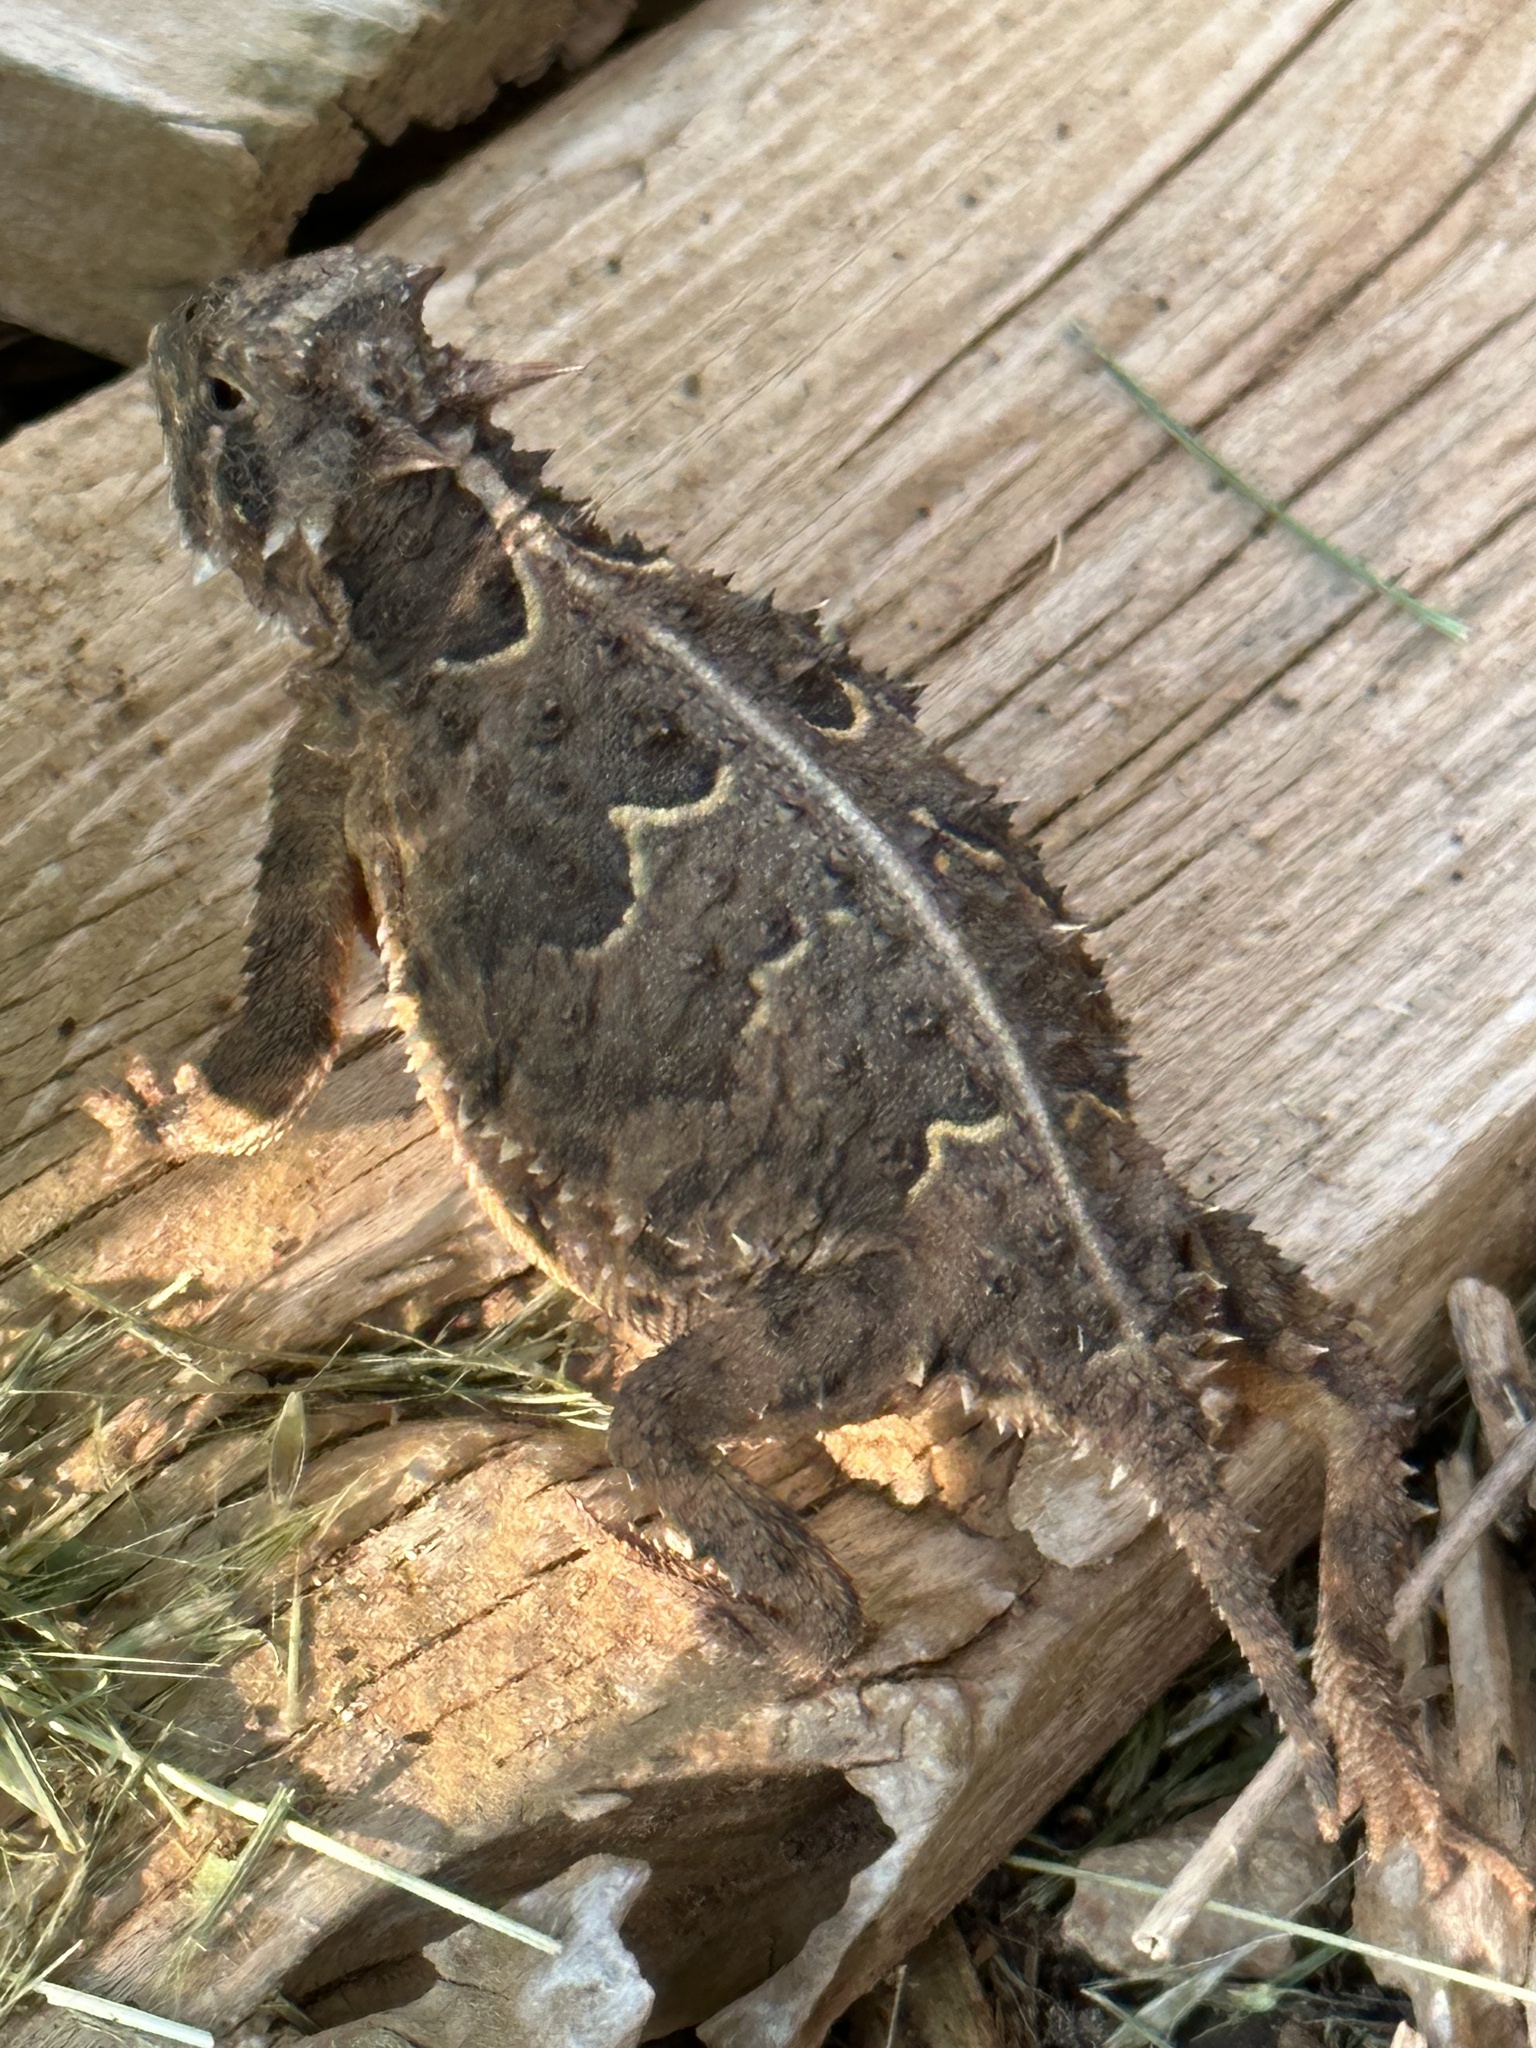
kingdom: Animalia
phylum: Chordata
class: Squamata
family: Phrynosomatidae
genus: Phrynosoma
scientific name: Phrynosoma cornutum
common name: Texas horned lizard
